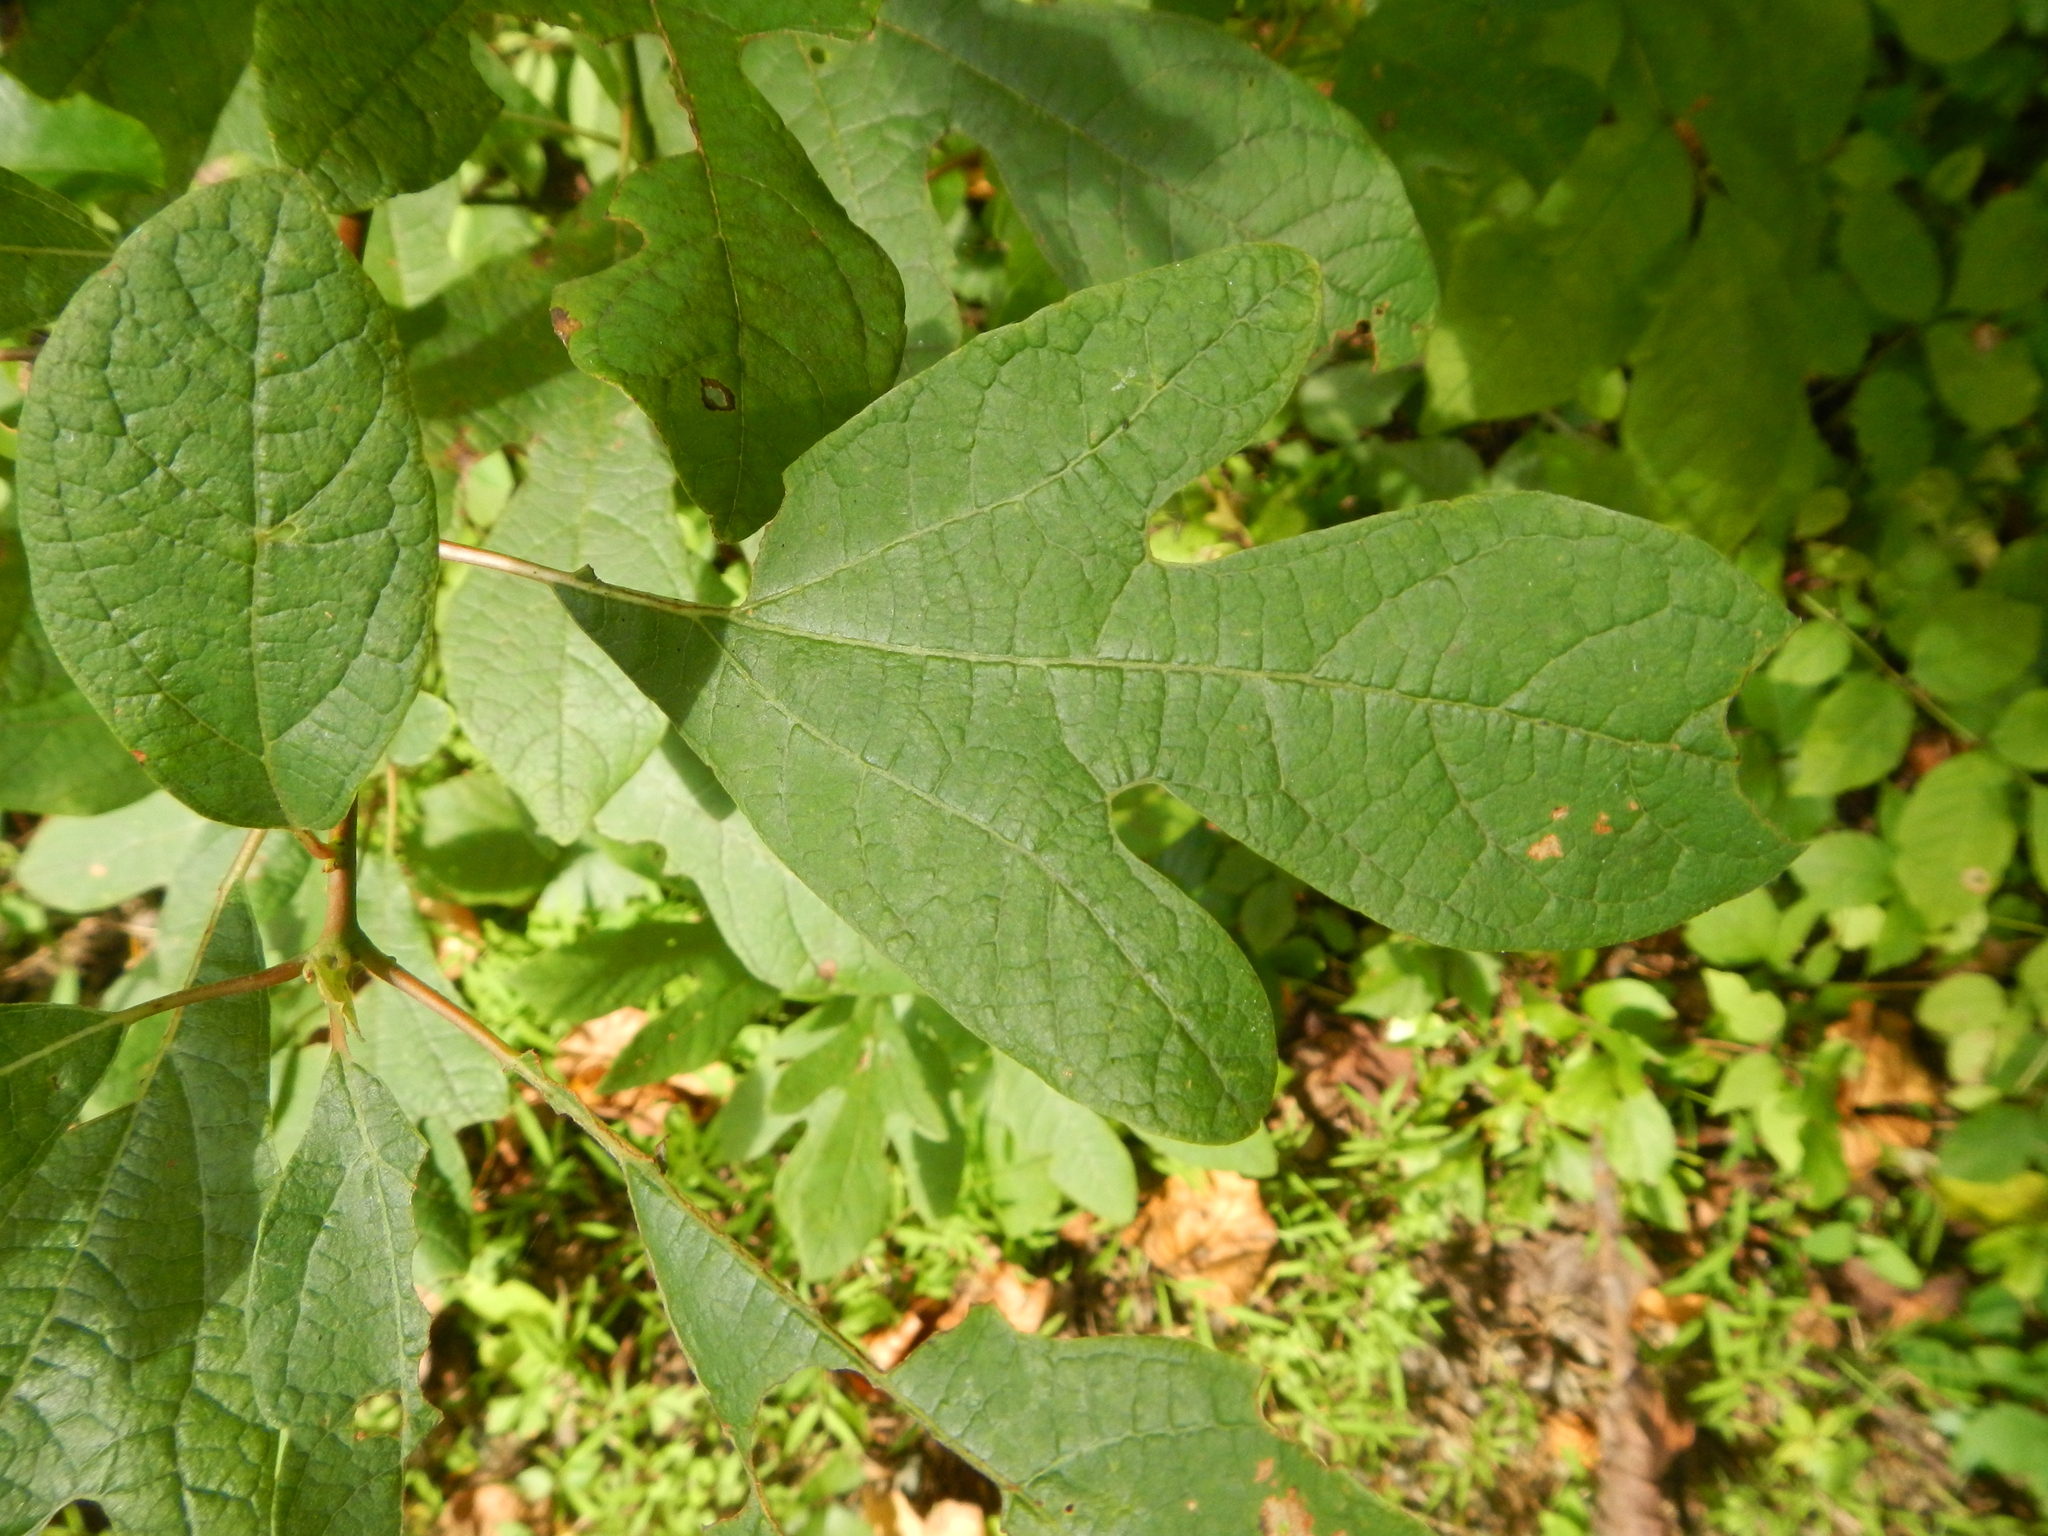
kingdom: Plantae
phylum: Tracheophyta
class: Magnoliopsida
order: Laurales
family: Lauraceae
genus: Sassafras
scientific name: Sassafras albidum
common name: Sassafras
